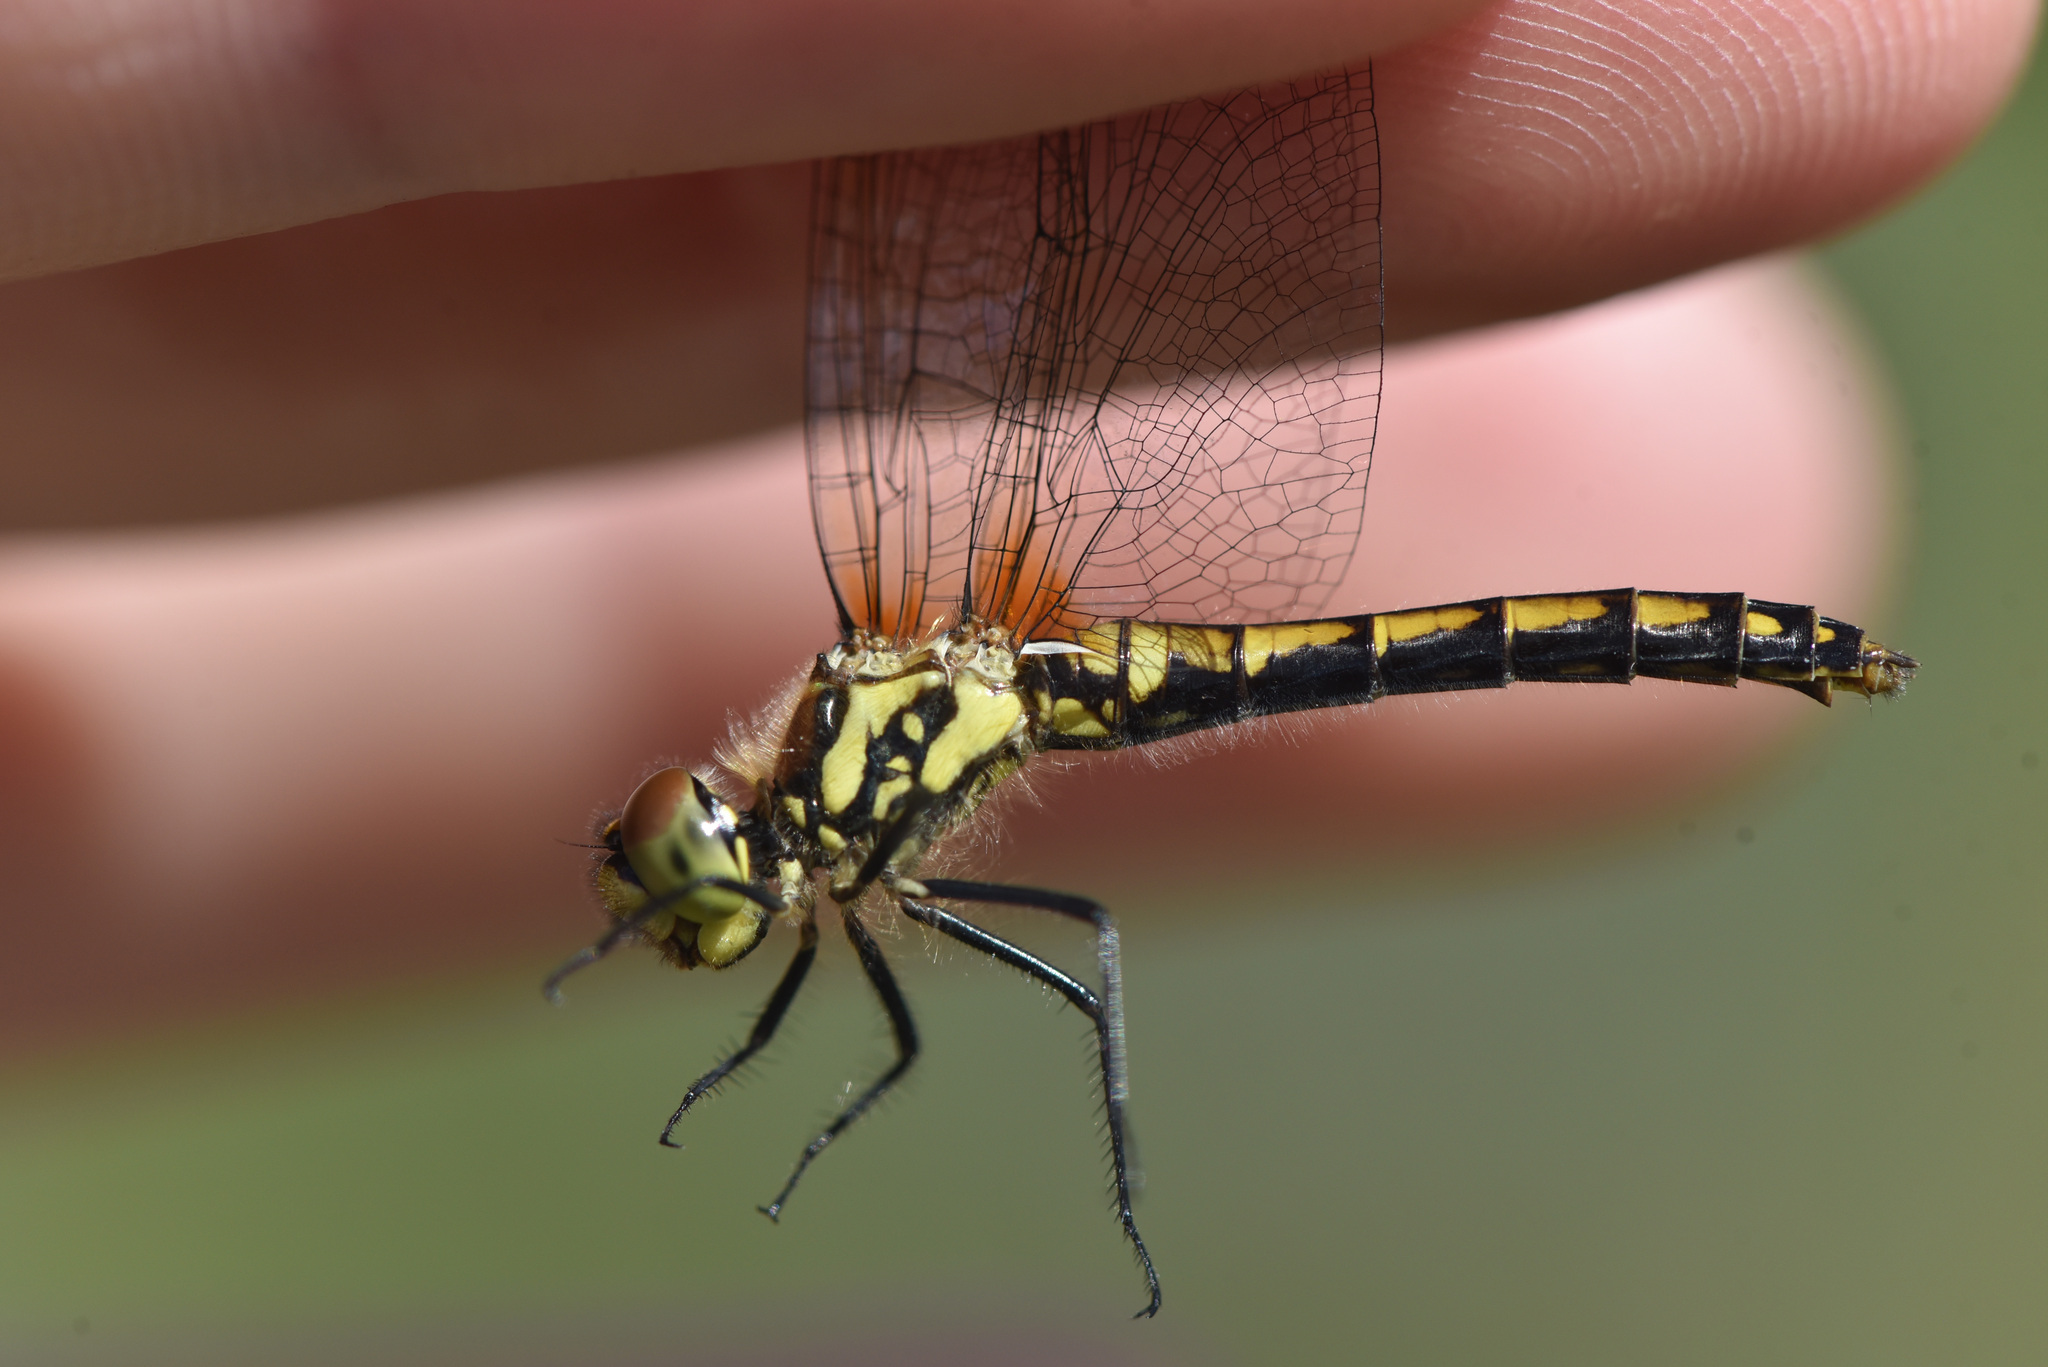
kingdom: Animalia
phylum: Arthropoda
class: Insecta
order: Odonata
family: Libellulidae
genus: Sympetrum
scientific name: Sympetrum danae
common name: Black darter
